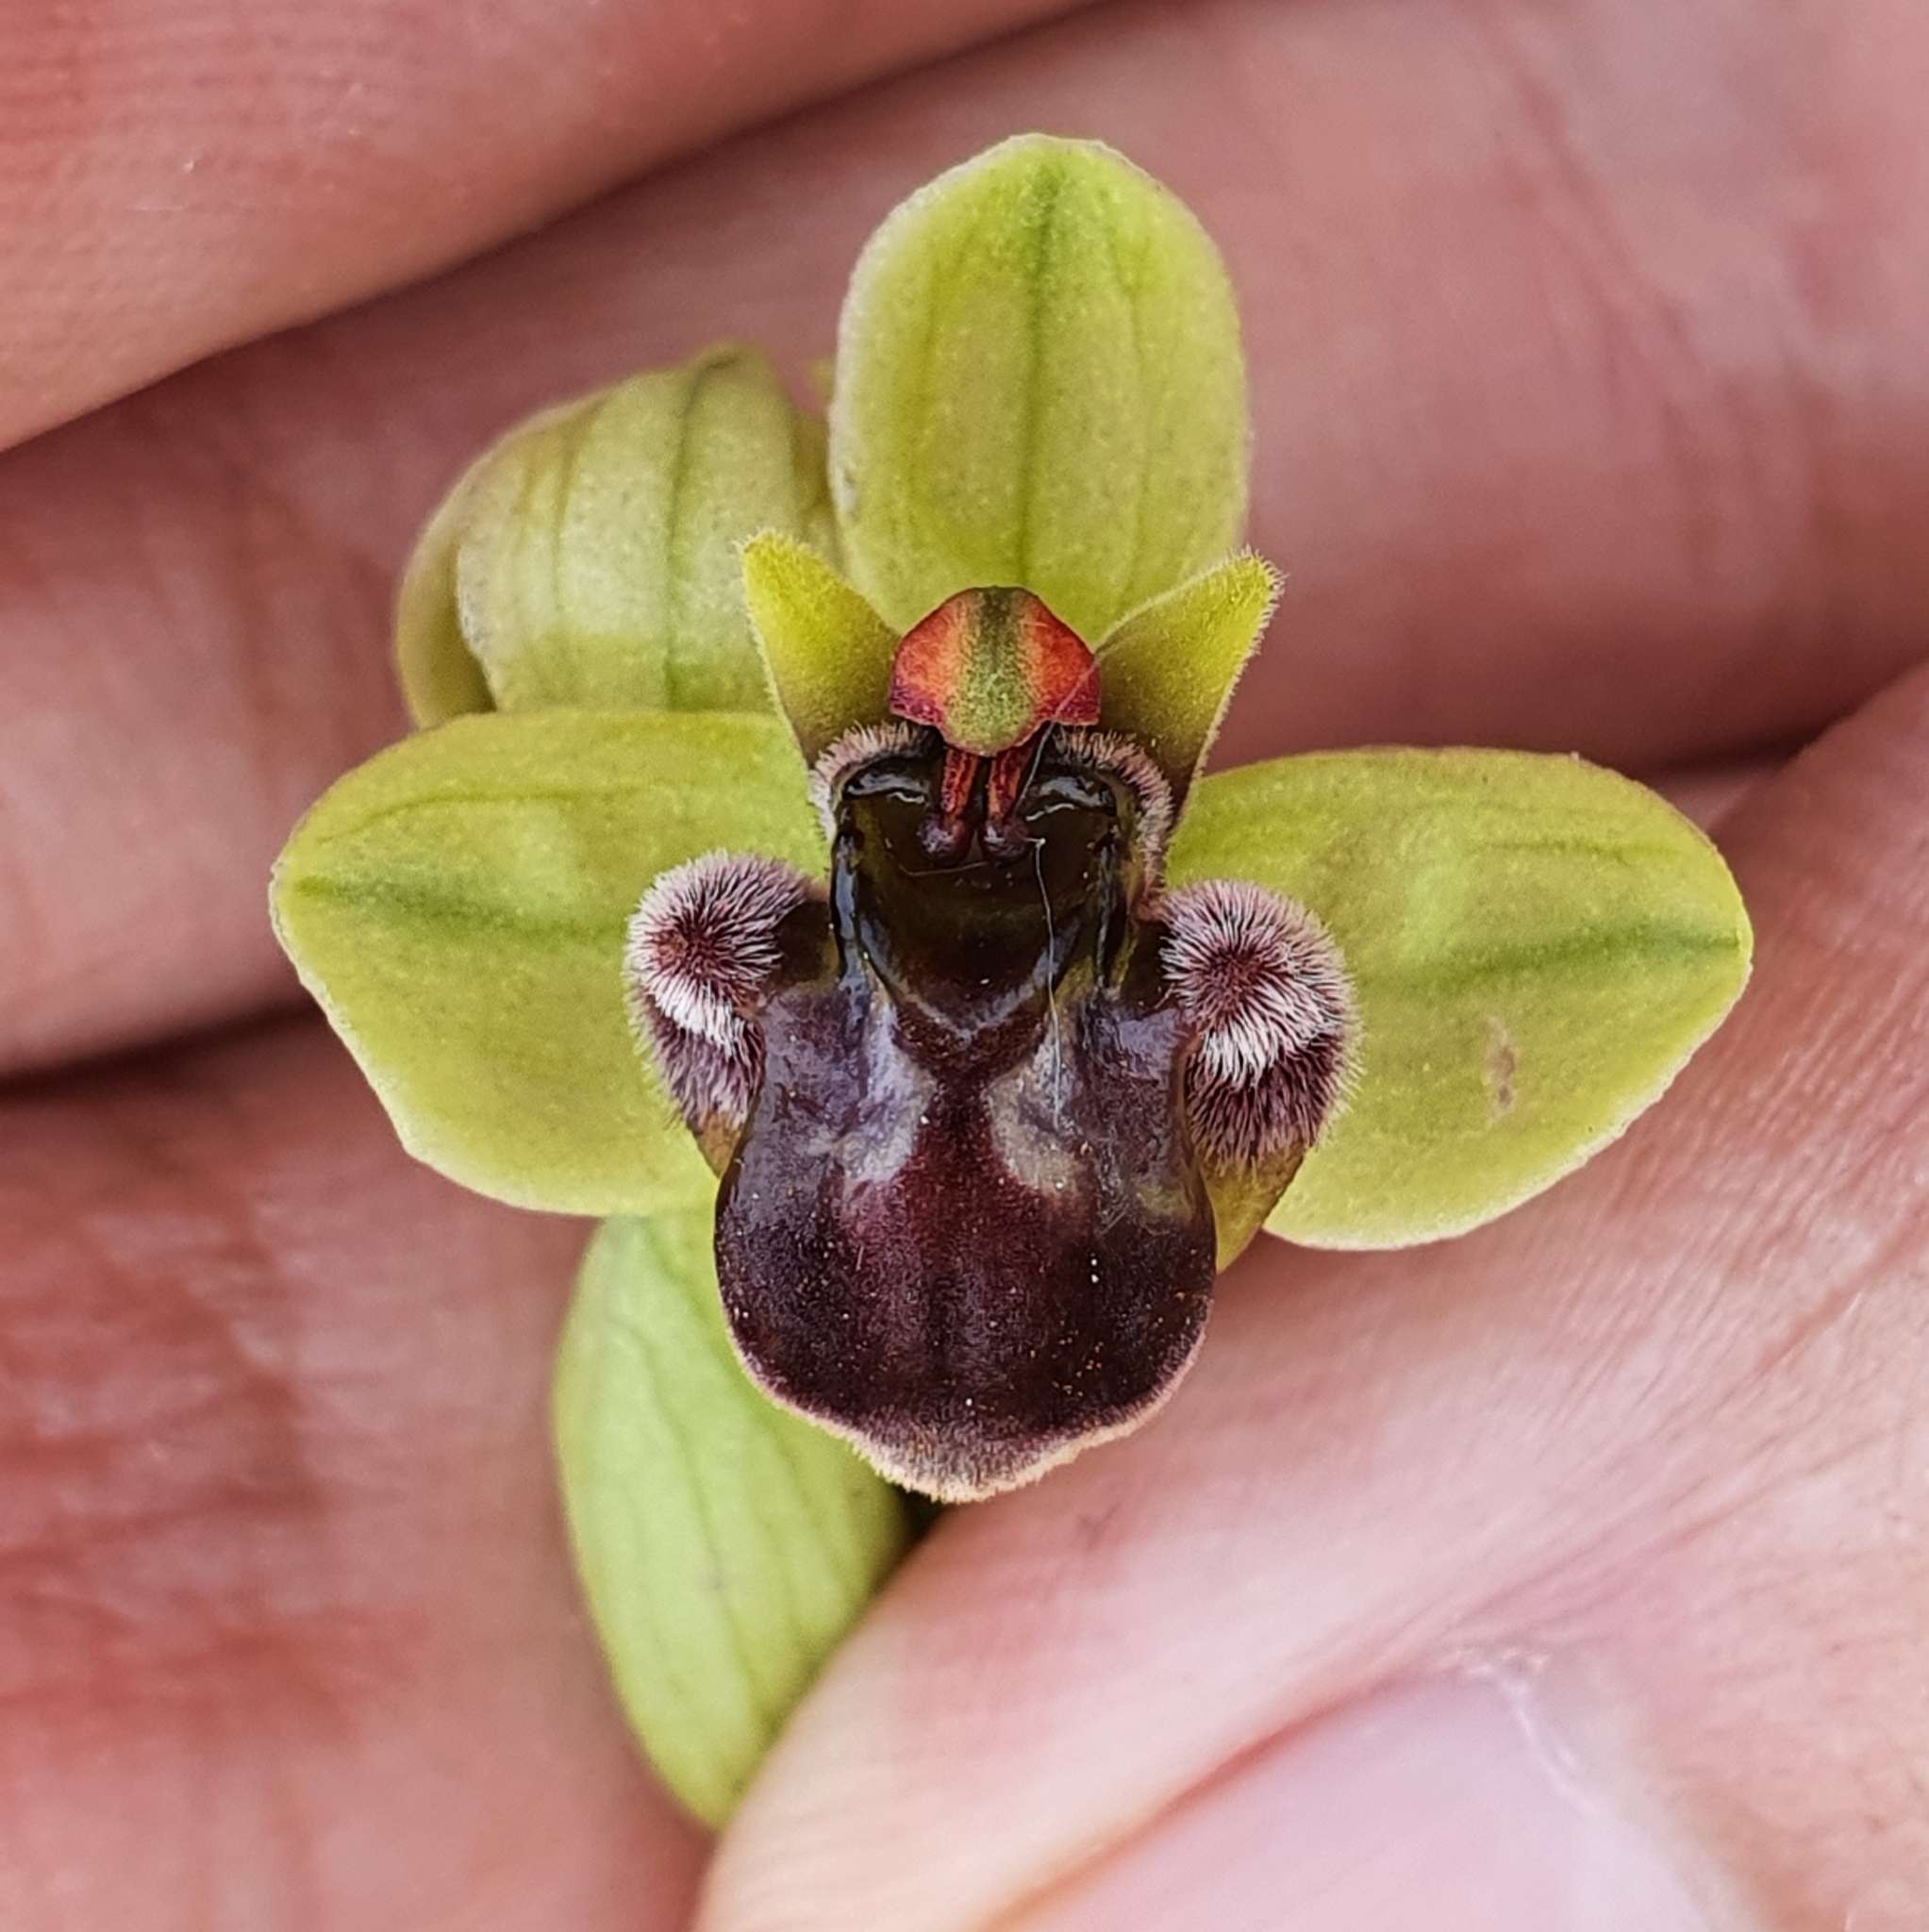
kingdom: Plantae
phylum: Tracheophyta
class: Liliopsida
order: Asparagales
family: Orchidaceae
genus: Ophrys
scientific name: Ophrys bombyliflora
